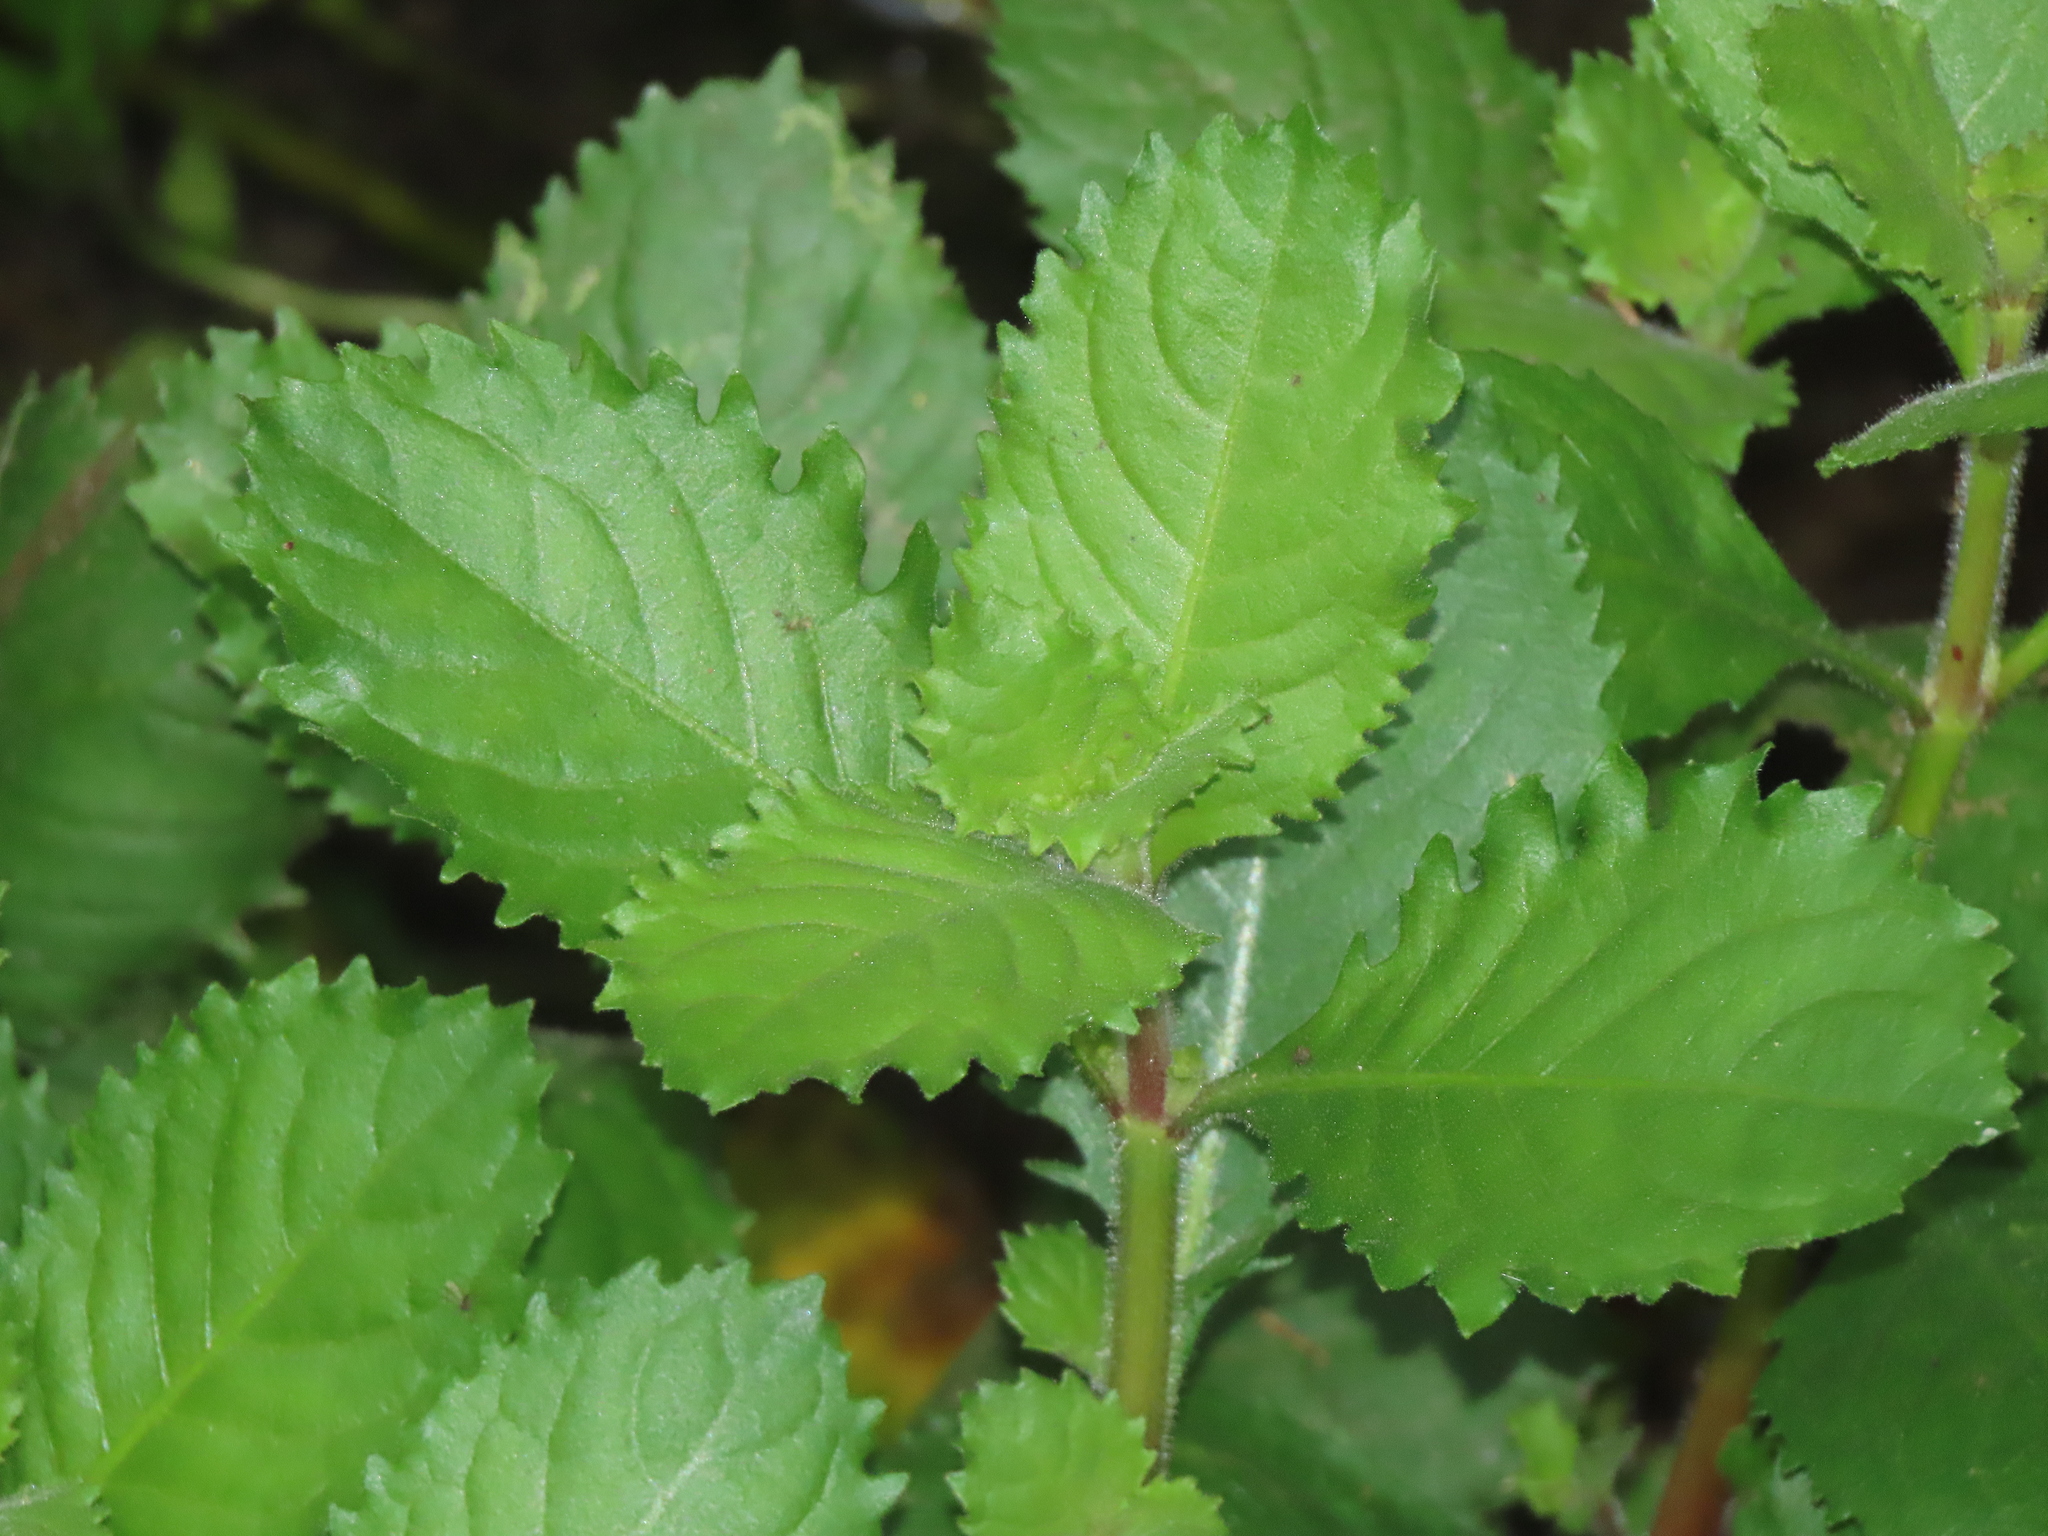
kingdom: Plantae
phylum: Tracheophyta
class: Magnoliopsida
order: Lamiales
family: Acanthaceae
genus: Hygrophila
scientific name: Hygrophila difformis
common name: Water-wisteria
